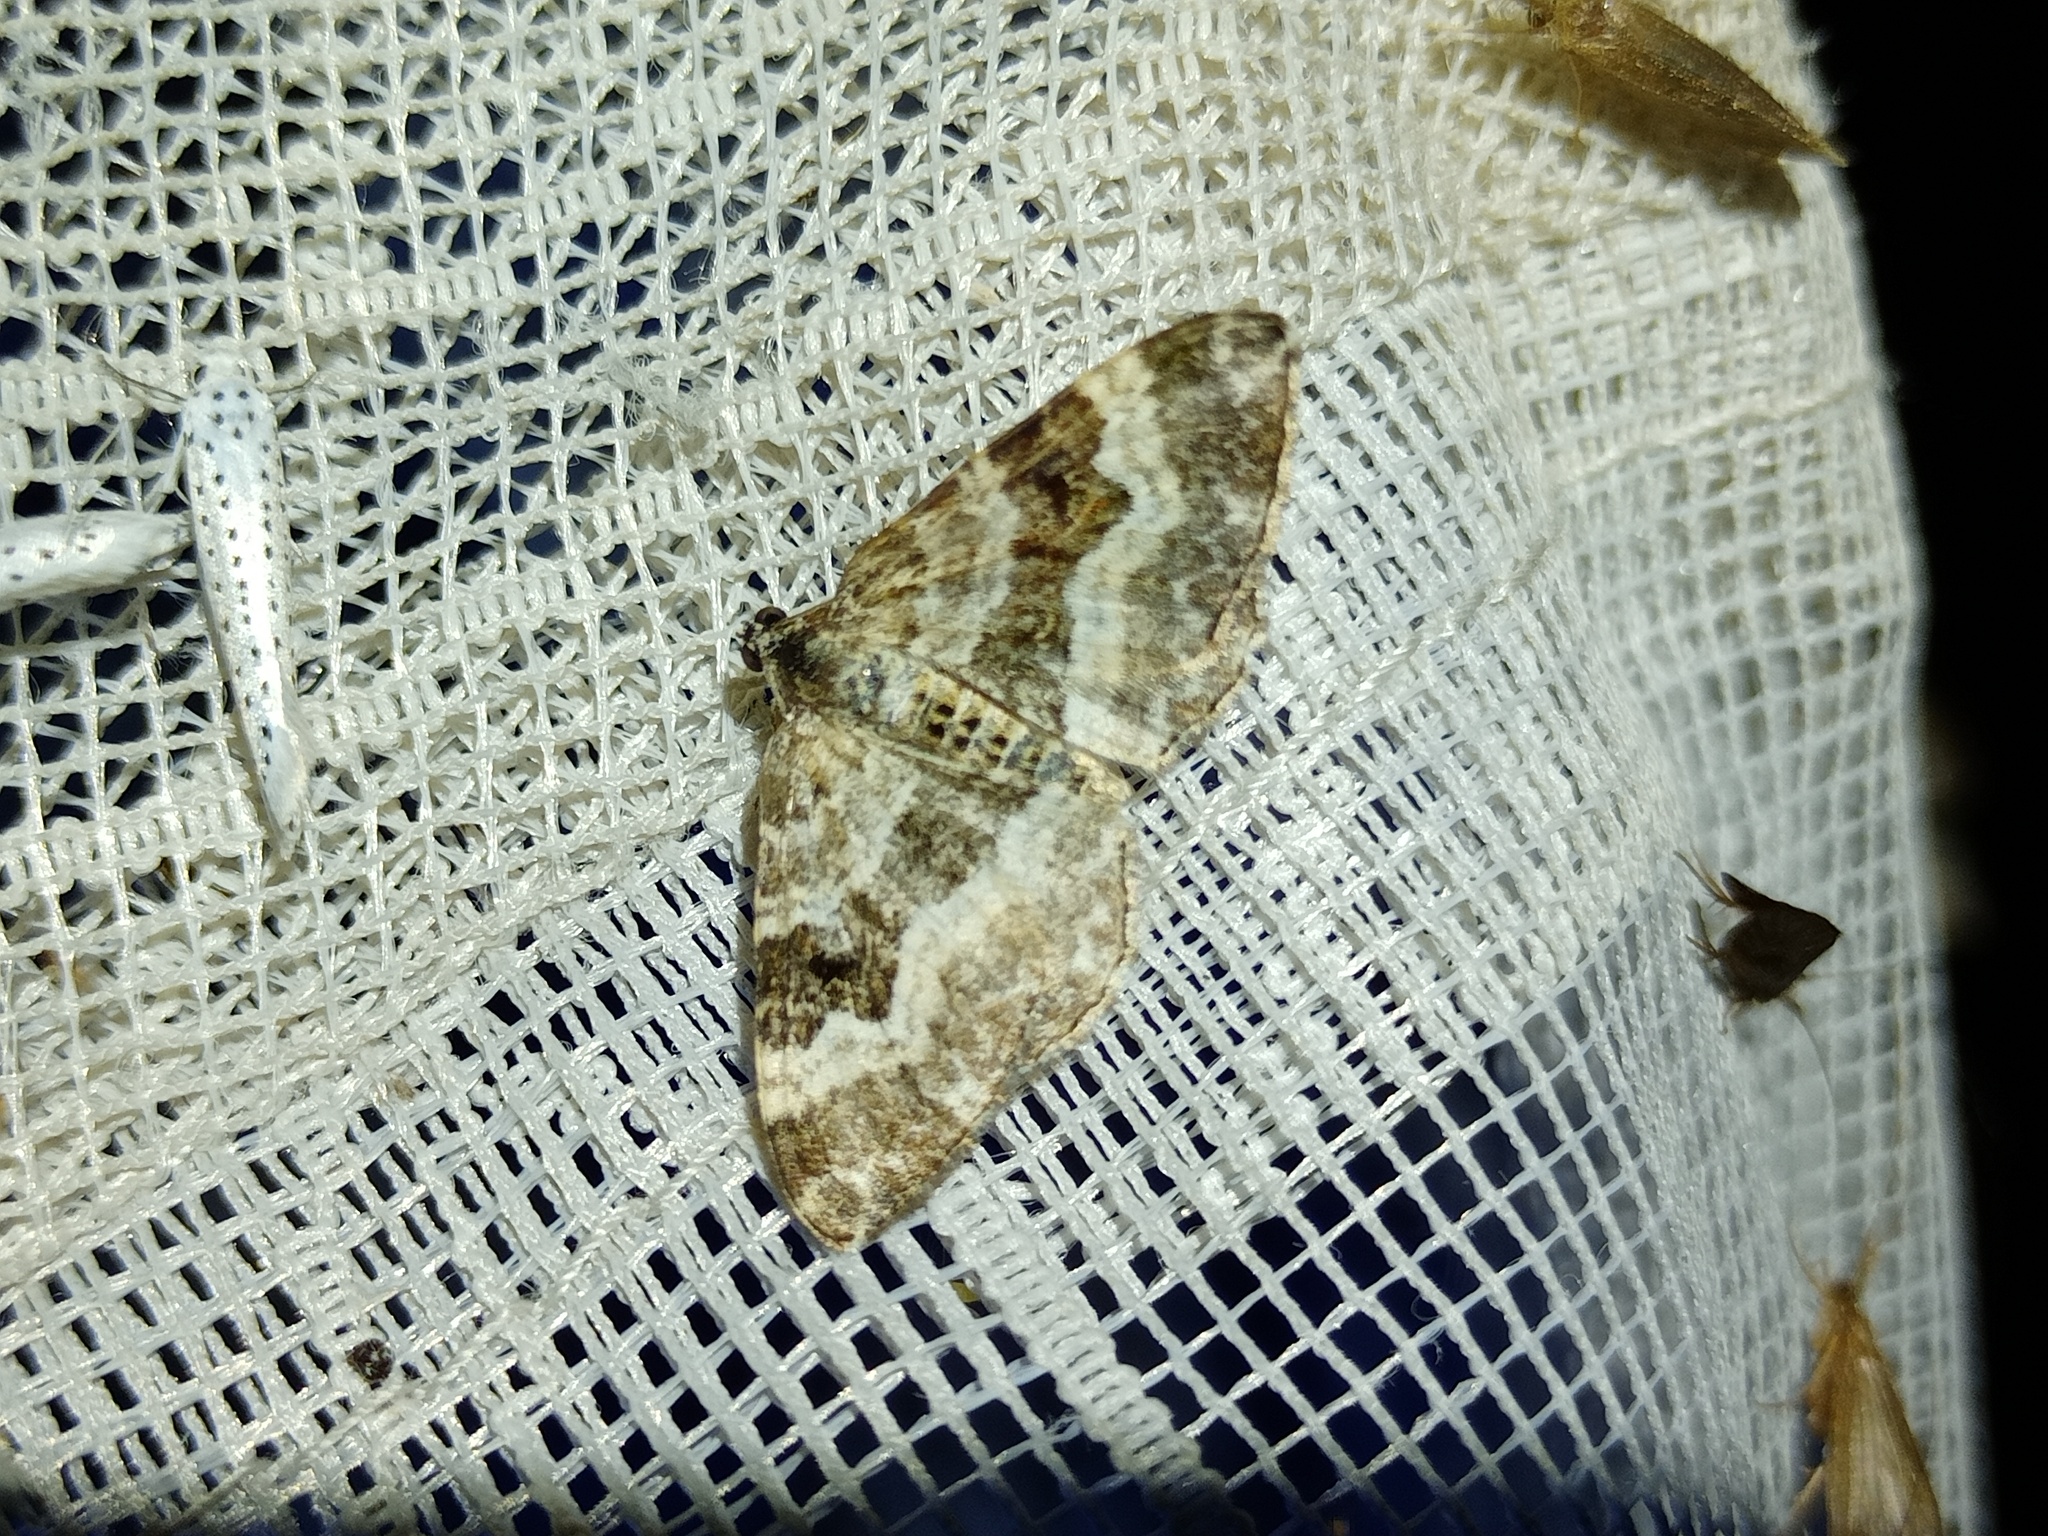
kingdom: Animalia
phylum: Arthropoda
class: Insecta
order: Lepidoptera
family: Geometridae
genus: Epirrhoe
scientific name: Epirrhoe alternata
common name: Common carpet
